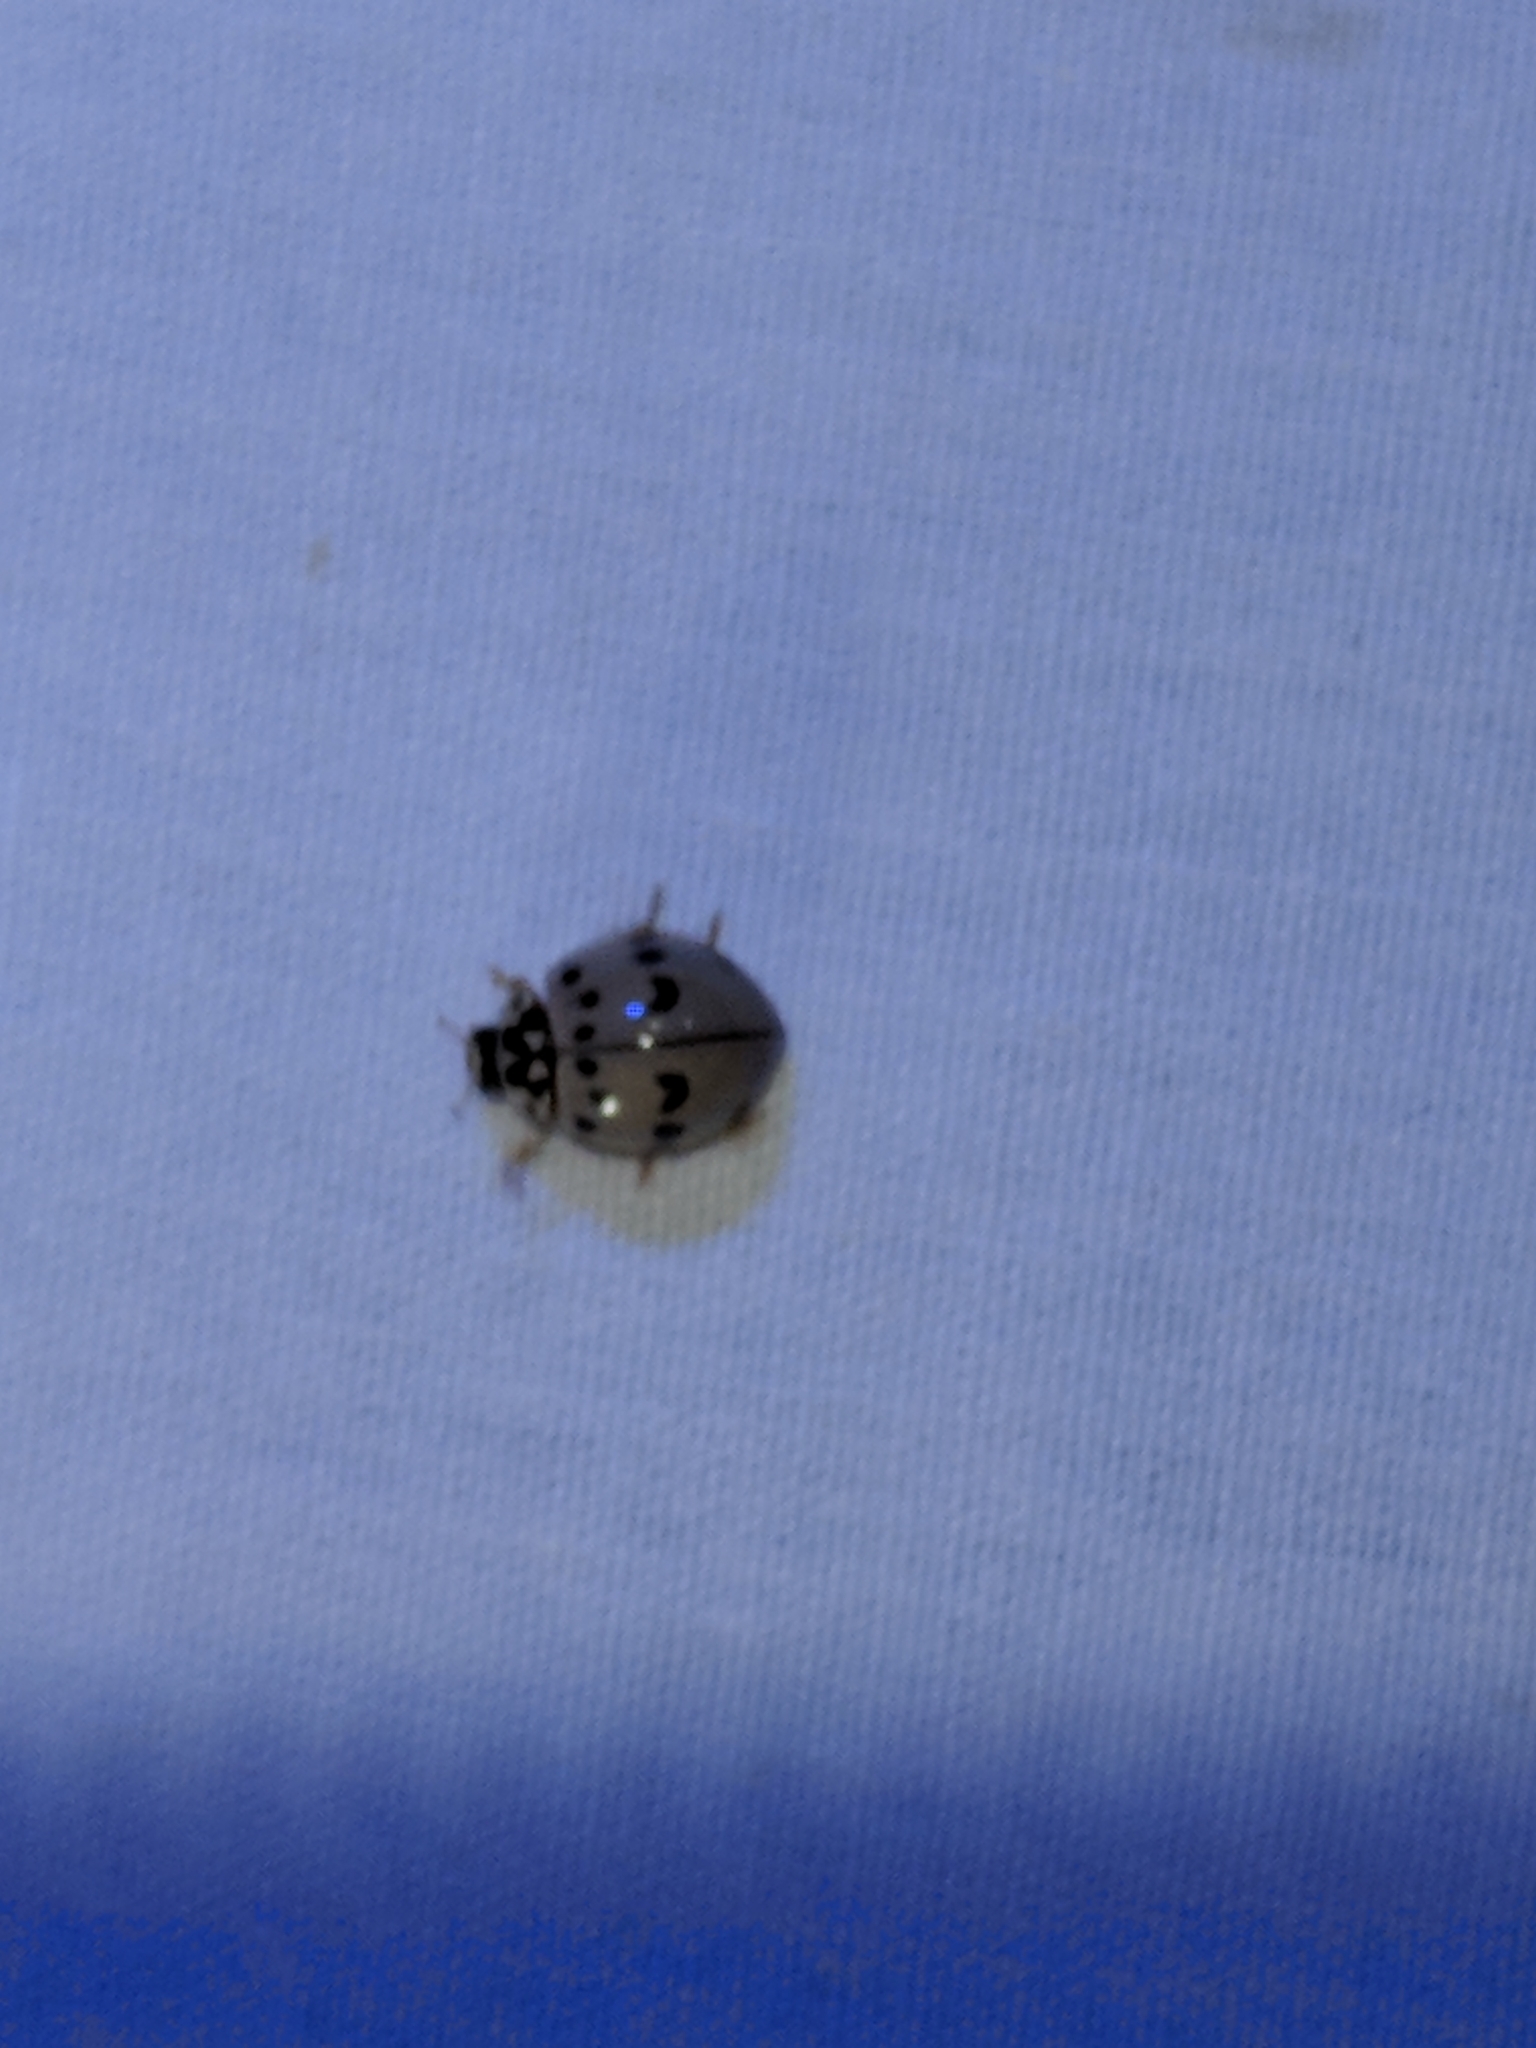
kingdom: Animalia
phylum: Arthropoda
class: Insecta
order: Coleoptera
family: Coccinellidae
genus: Olla
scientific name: Olla v-nigrum
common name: Ashy gray lady beetle
